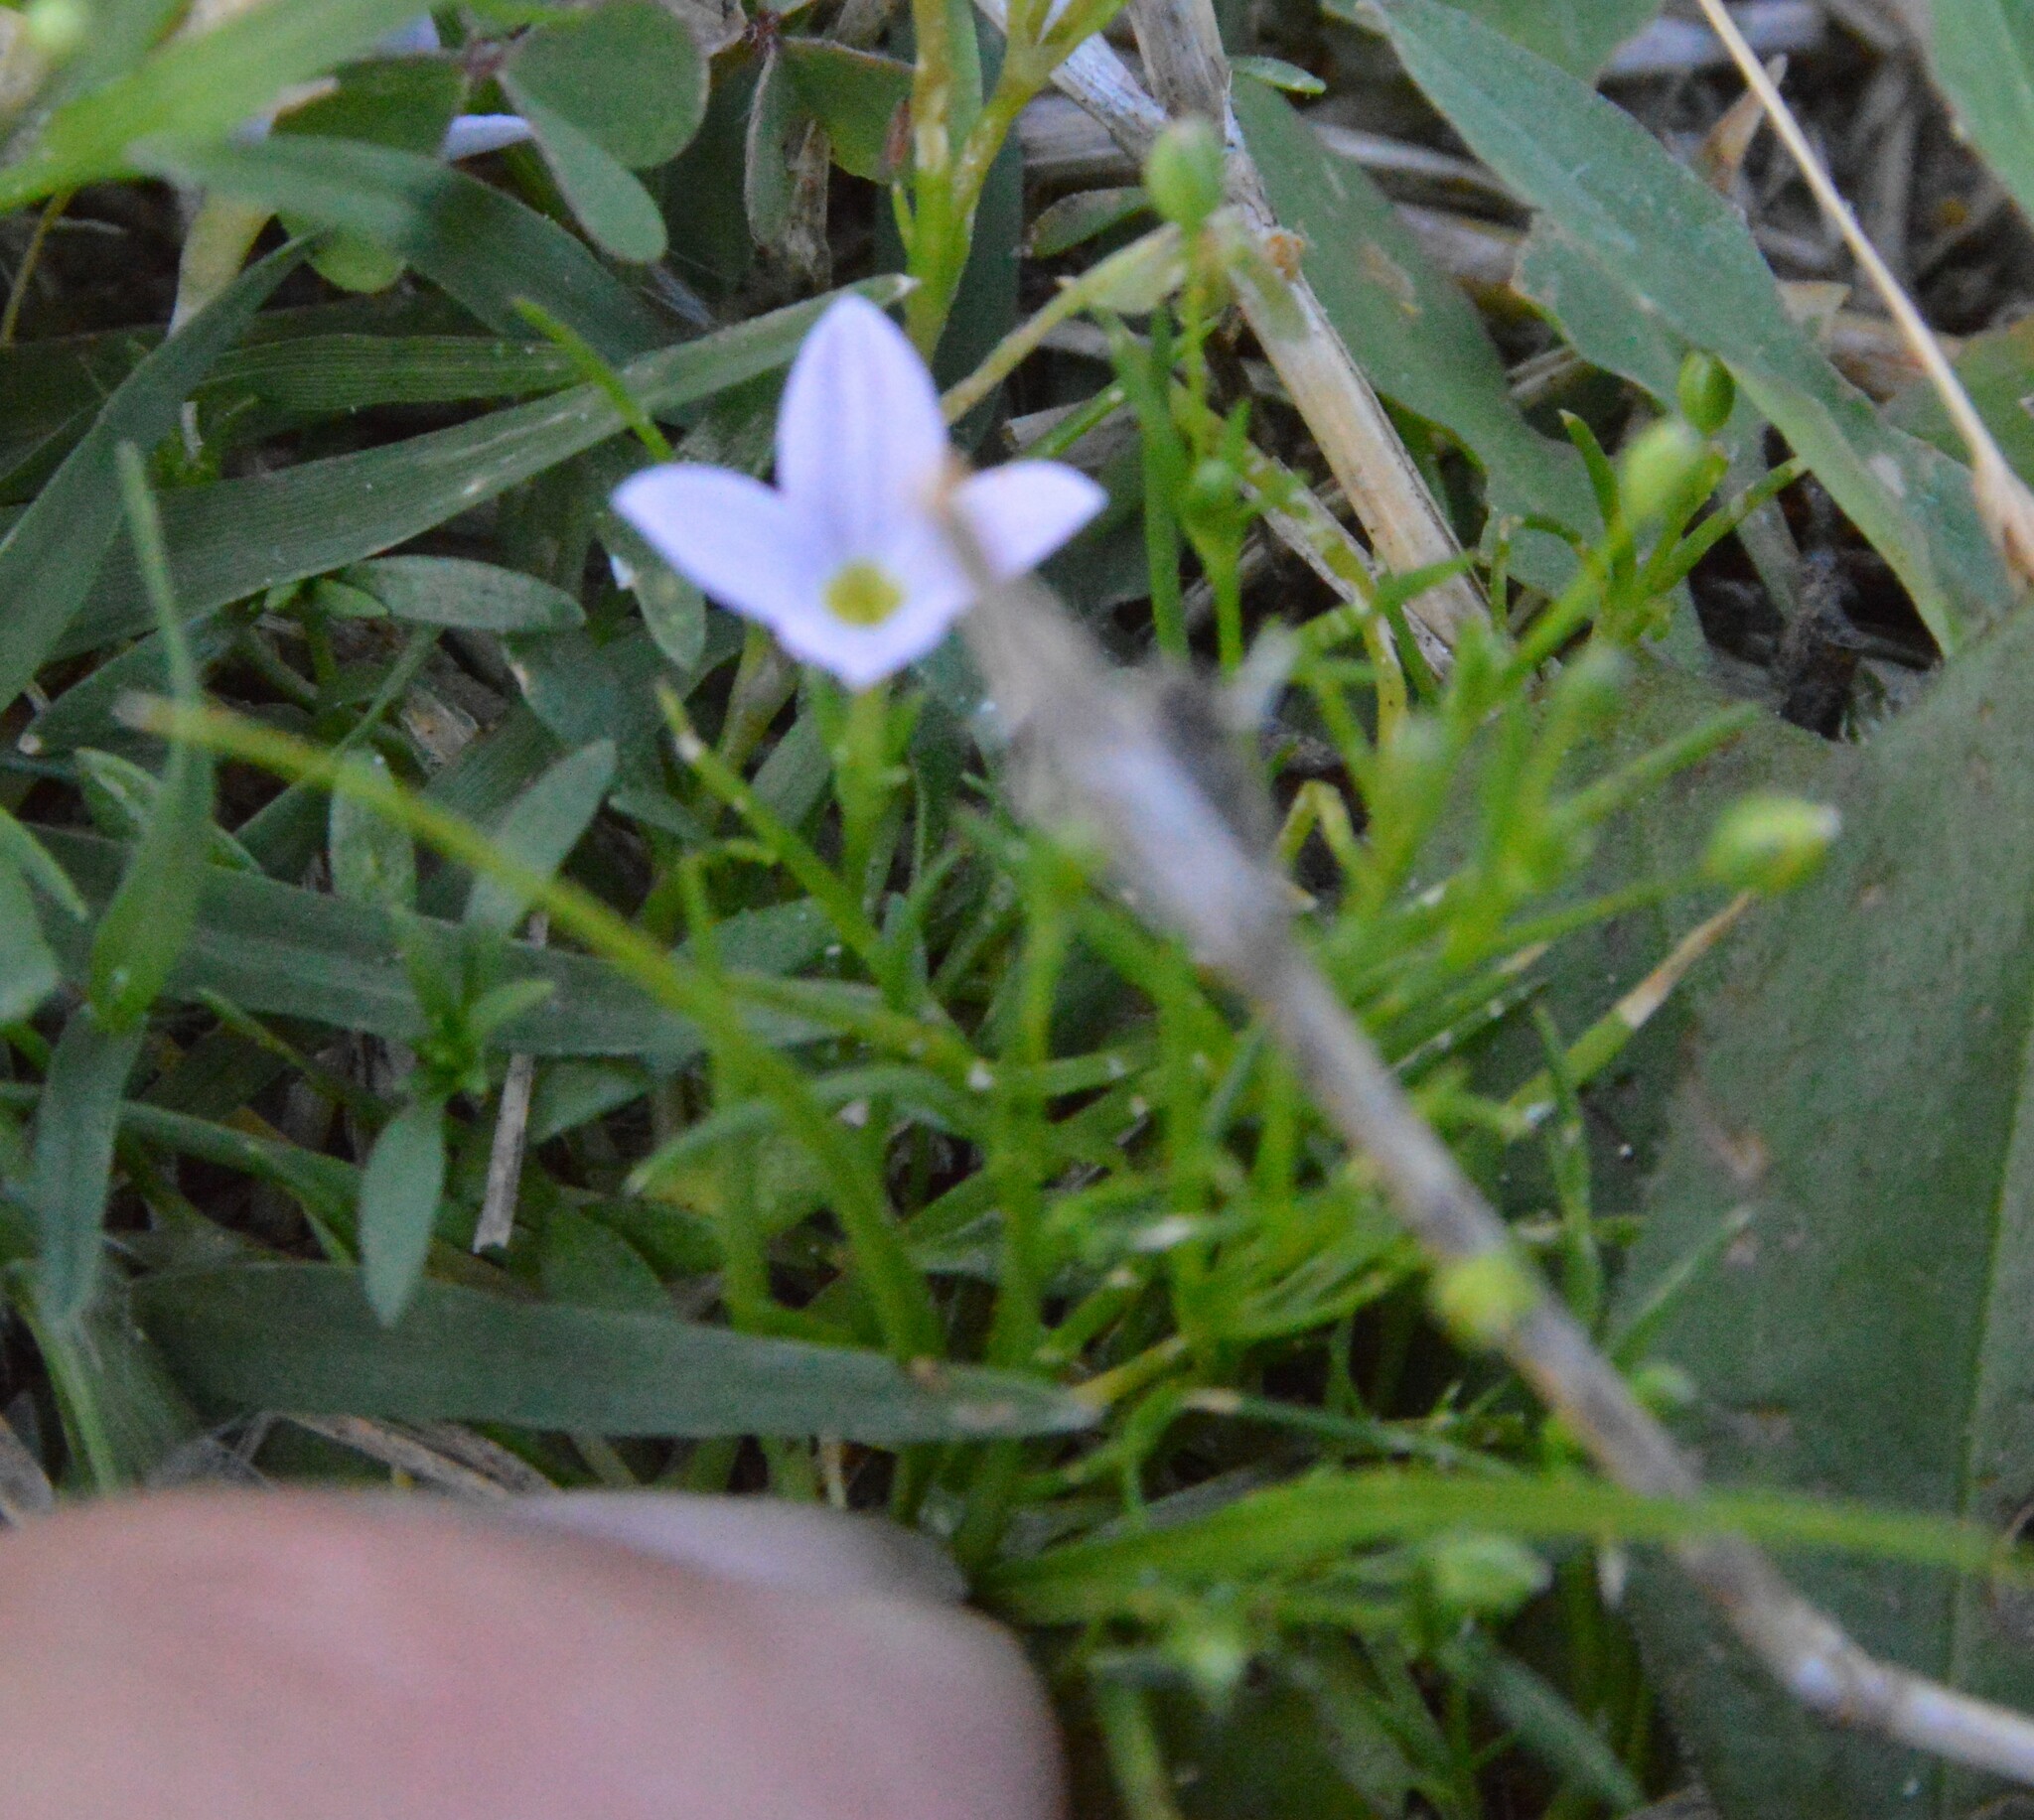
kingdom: Plantae
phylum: Tracheophyta
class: Magnoliopsida
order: Gentianales
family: Rubiaceae
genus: Houstonia
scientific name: Houstonia rosea
